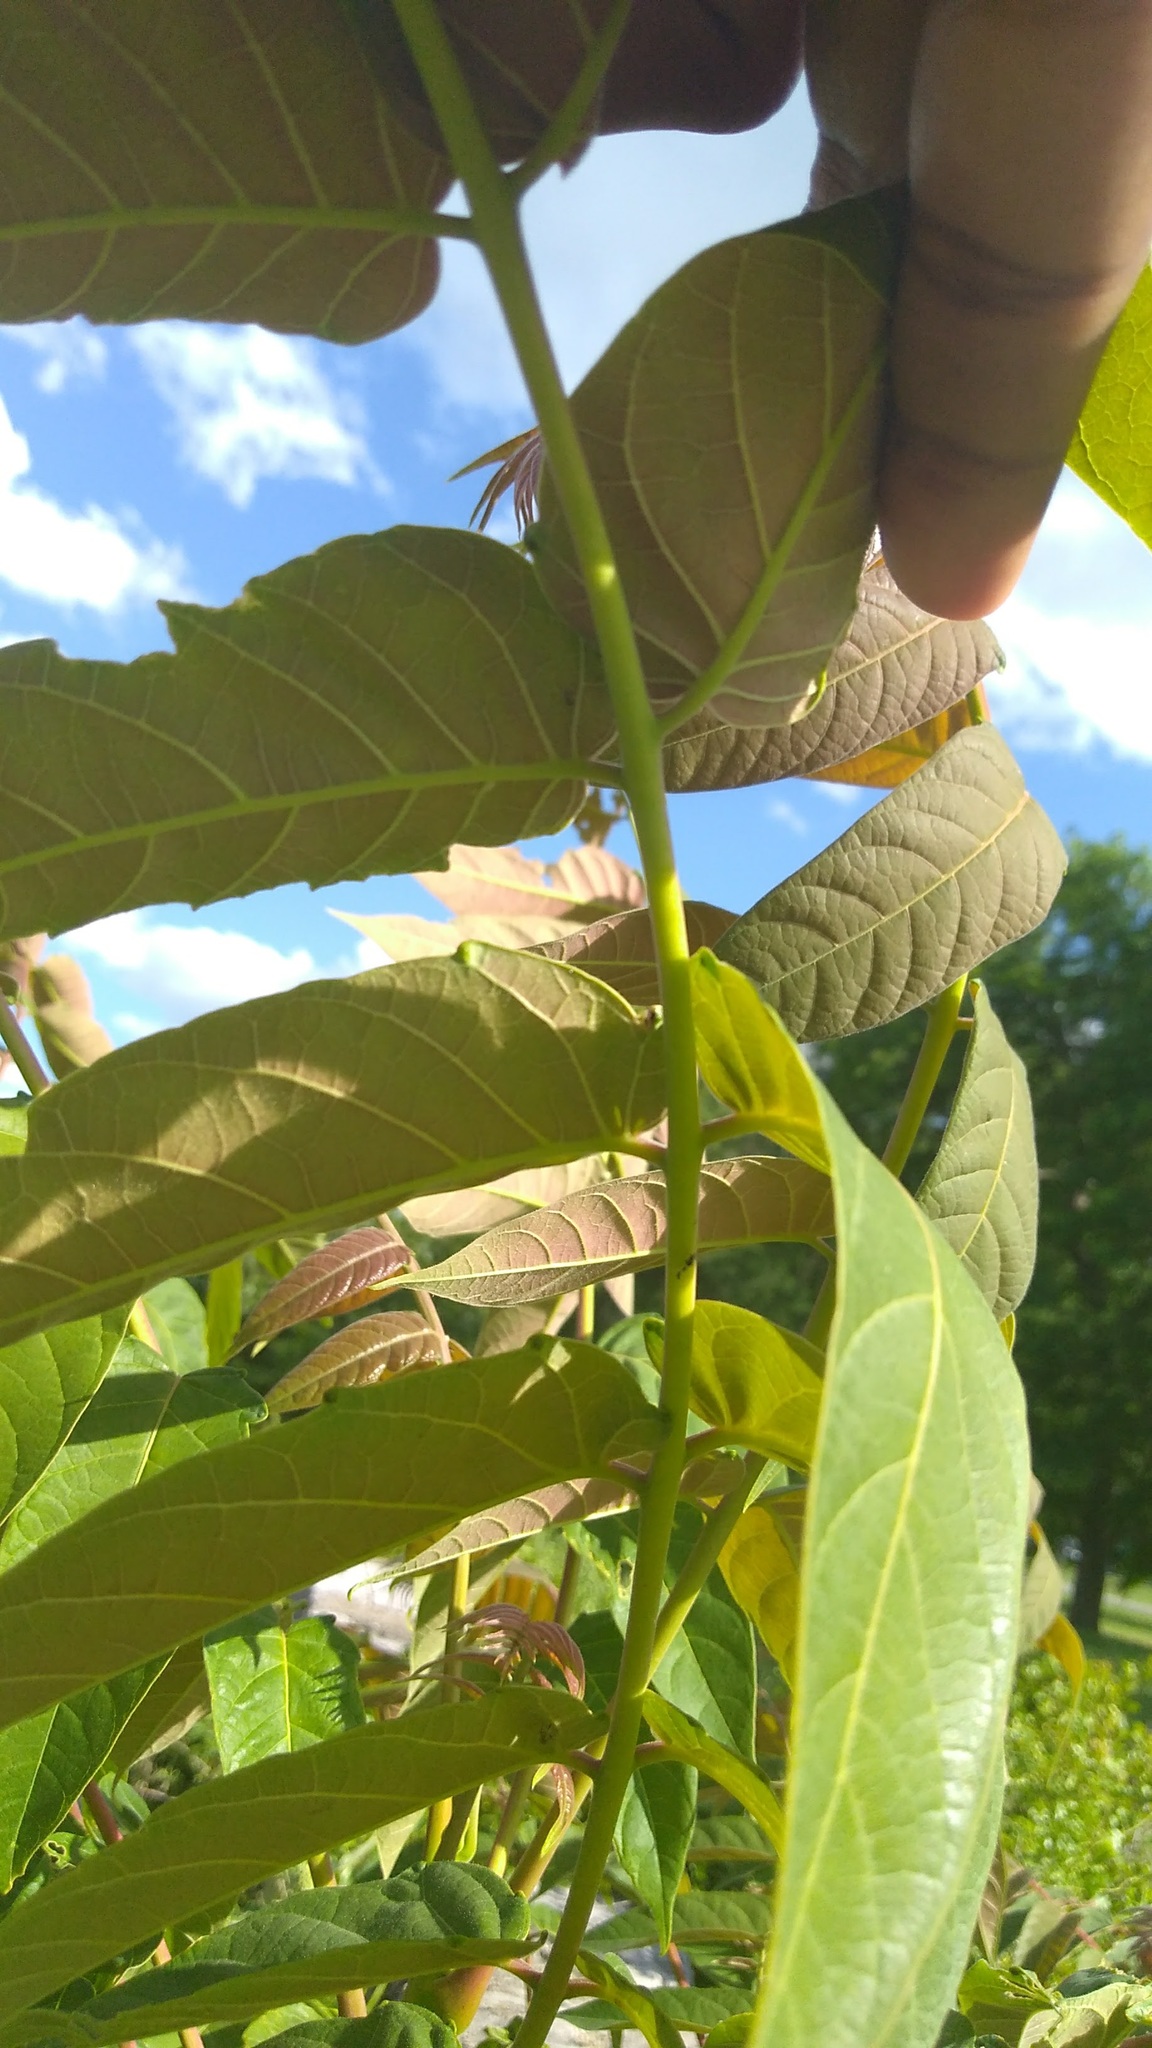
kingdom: Plantae
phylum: Tracheophyta
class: Magnoliopsida
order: Sapindales
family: Simaroubaceae
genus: Ailanthus
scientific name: Ailanthus altissima
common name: Tree-of-heaven
